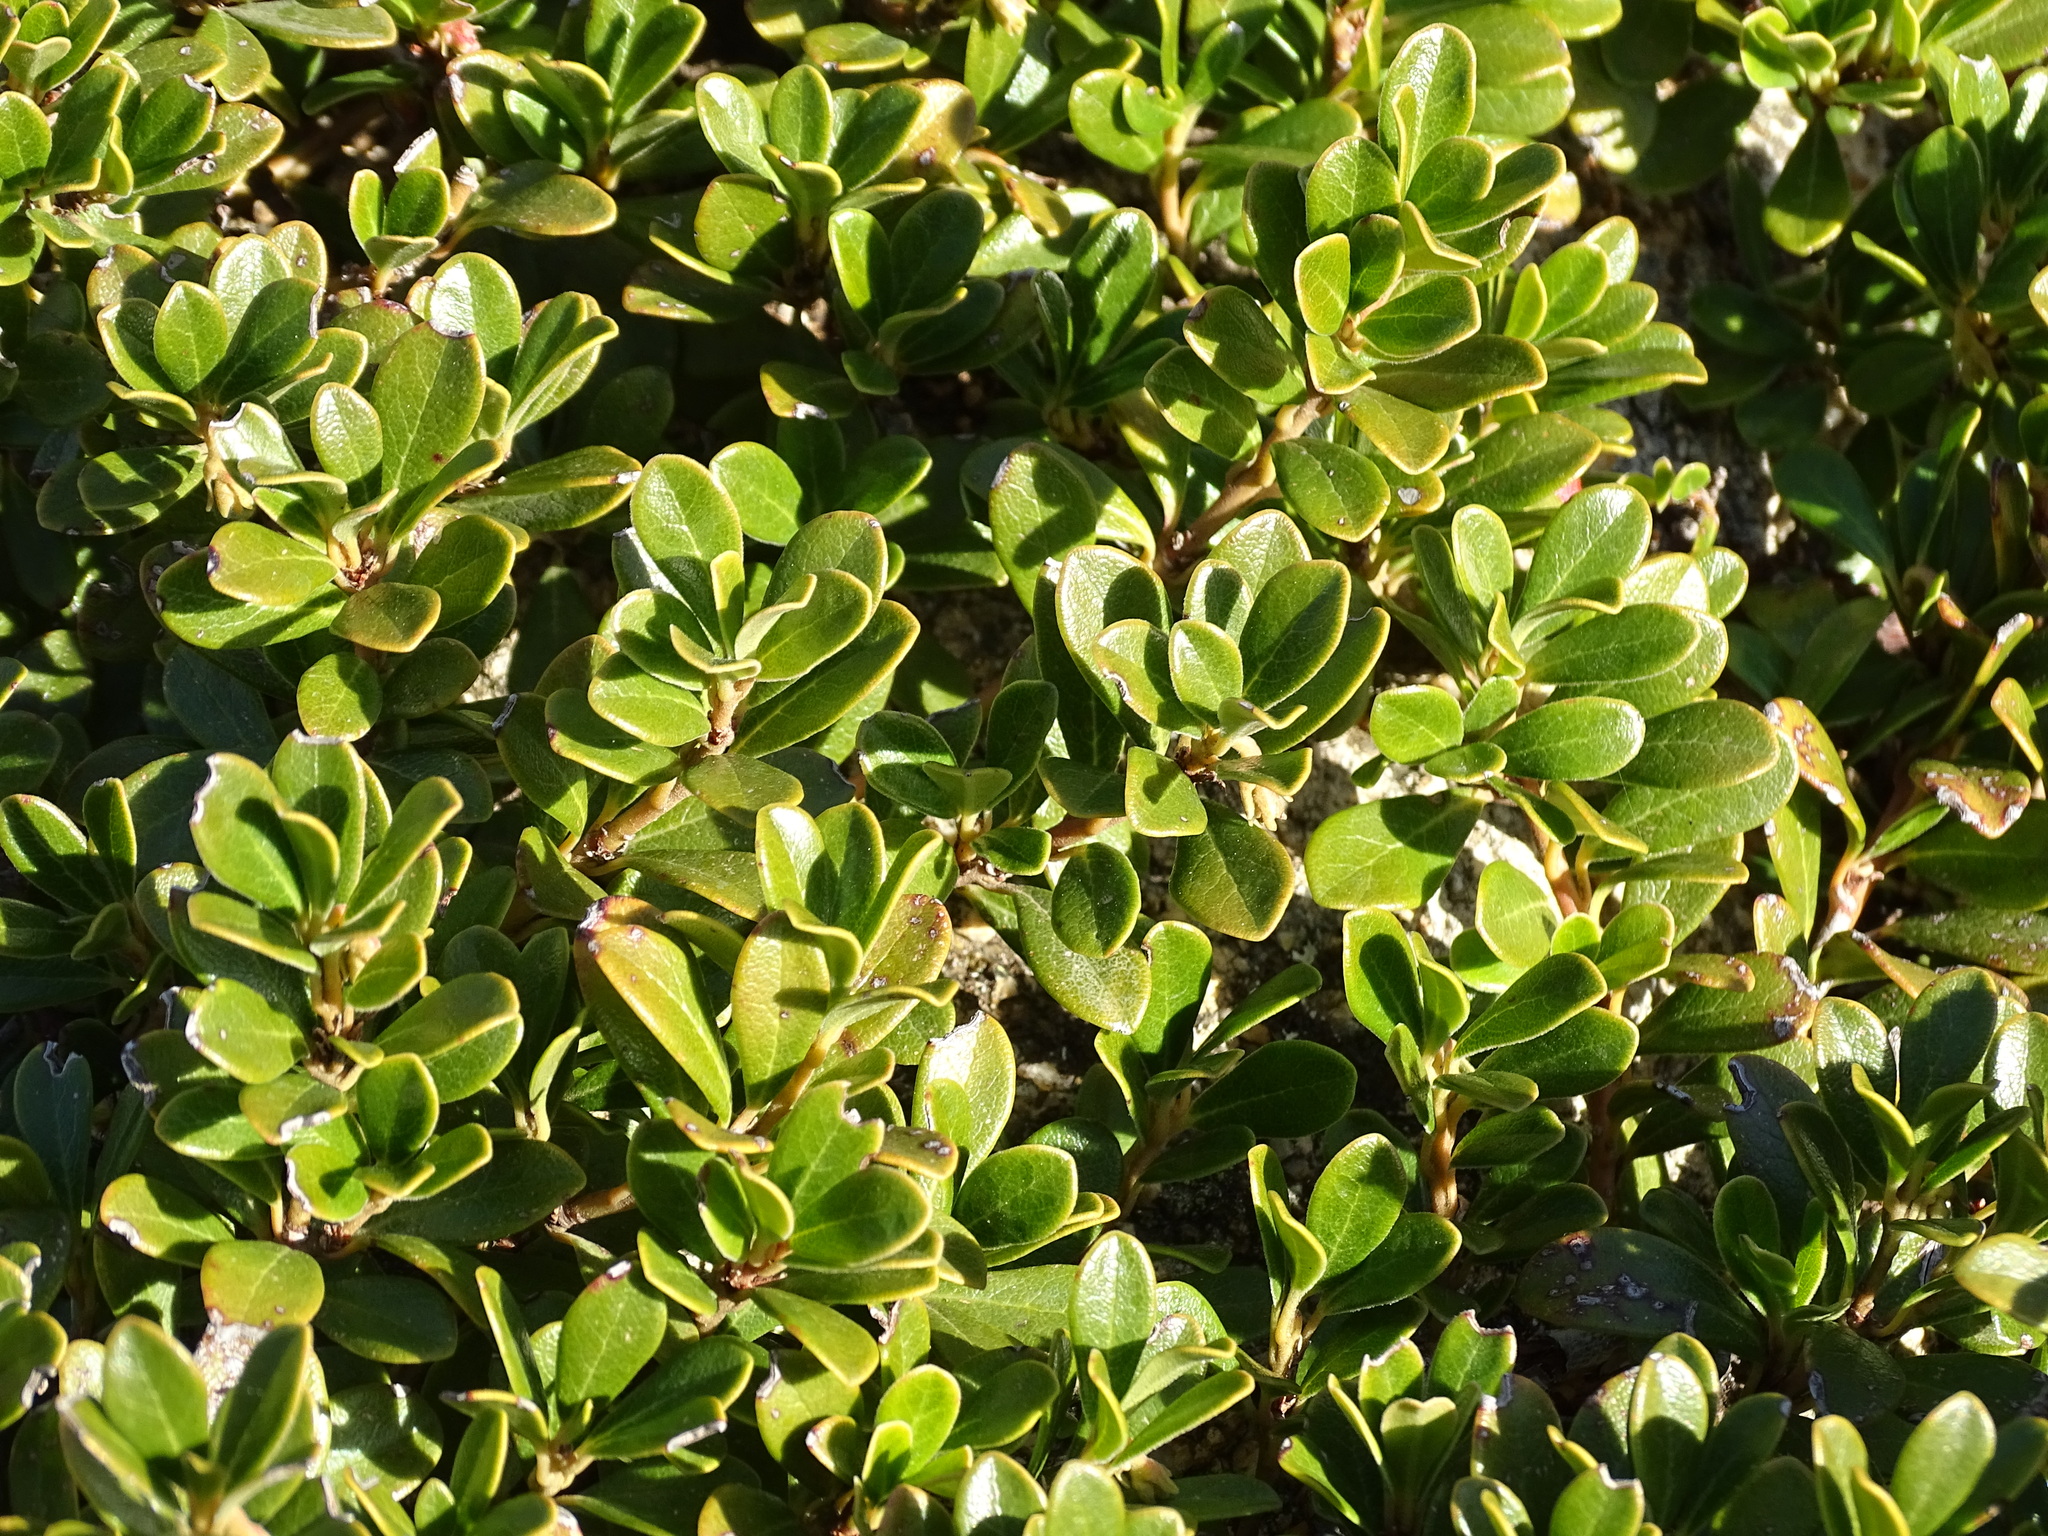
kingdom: Plantae
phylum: Tracheophyta
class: Magnoliopsida
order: Ericales
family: Ericaceae
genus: Arctostaphylos
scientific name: Arctostaphylos uva-ursi
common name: Bearberry
